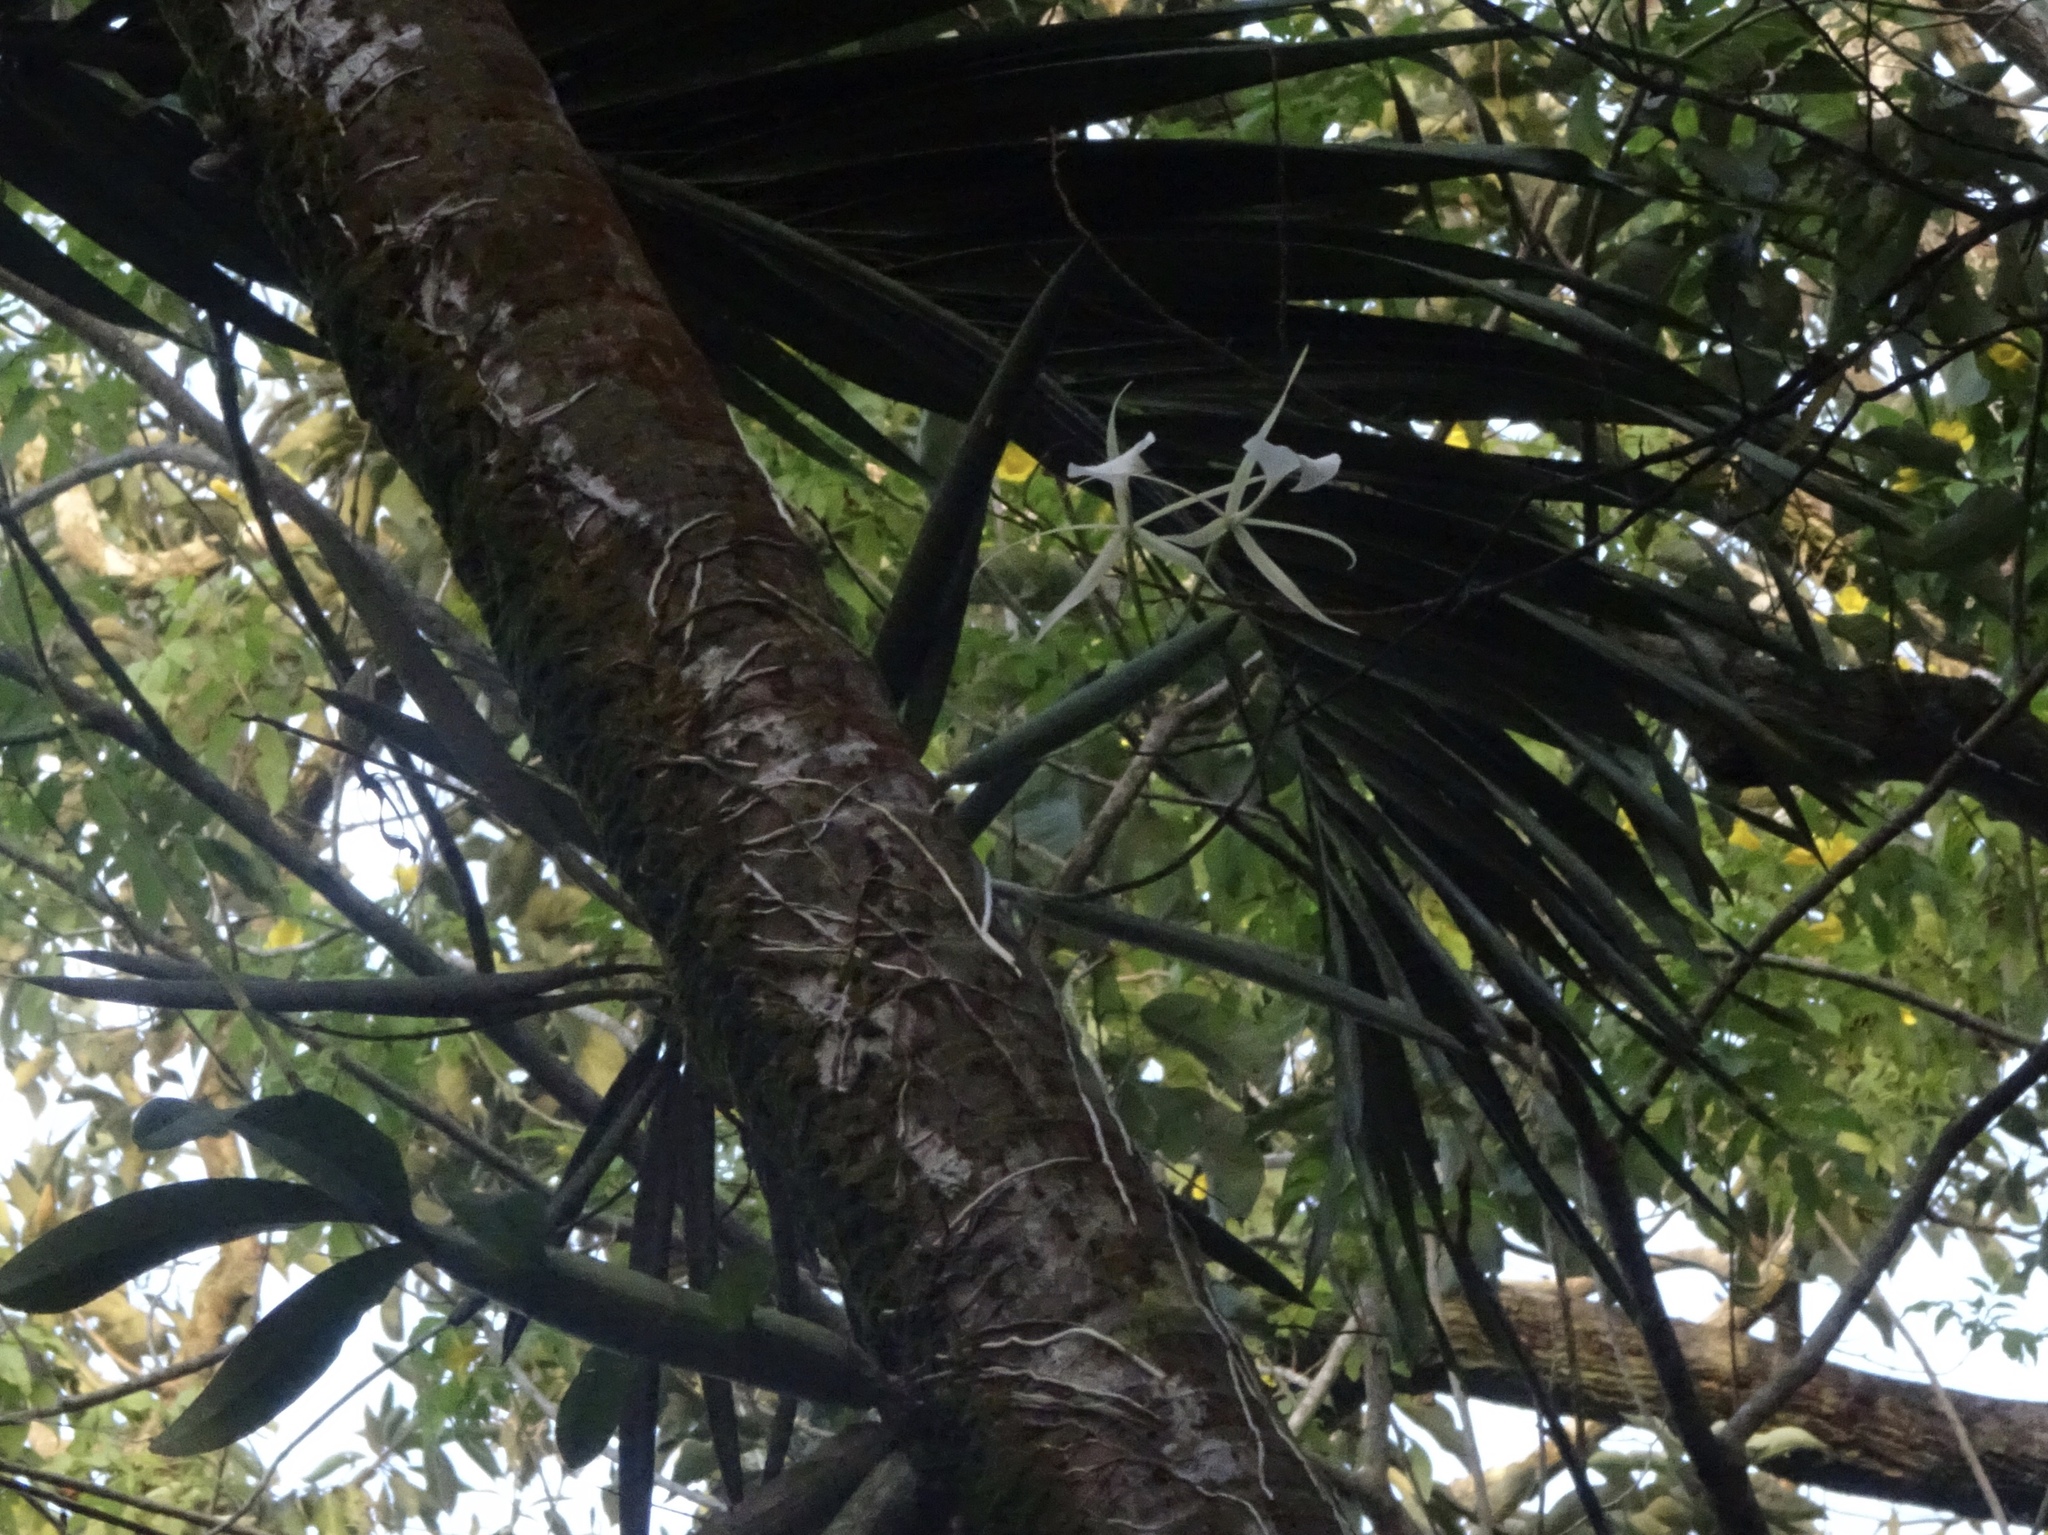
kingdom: Plantae
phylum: Tracheophyta
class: Liliopsida
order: Asparagales
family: Orchidaceae
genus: Brassavola
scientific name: Brassavola nodosa
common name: Lady of the night
